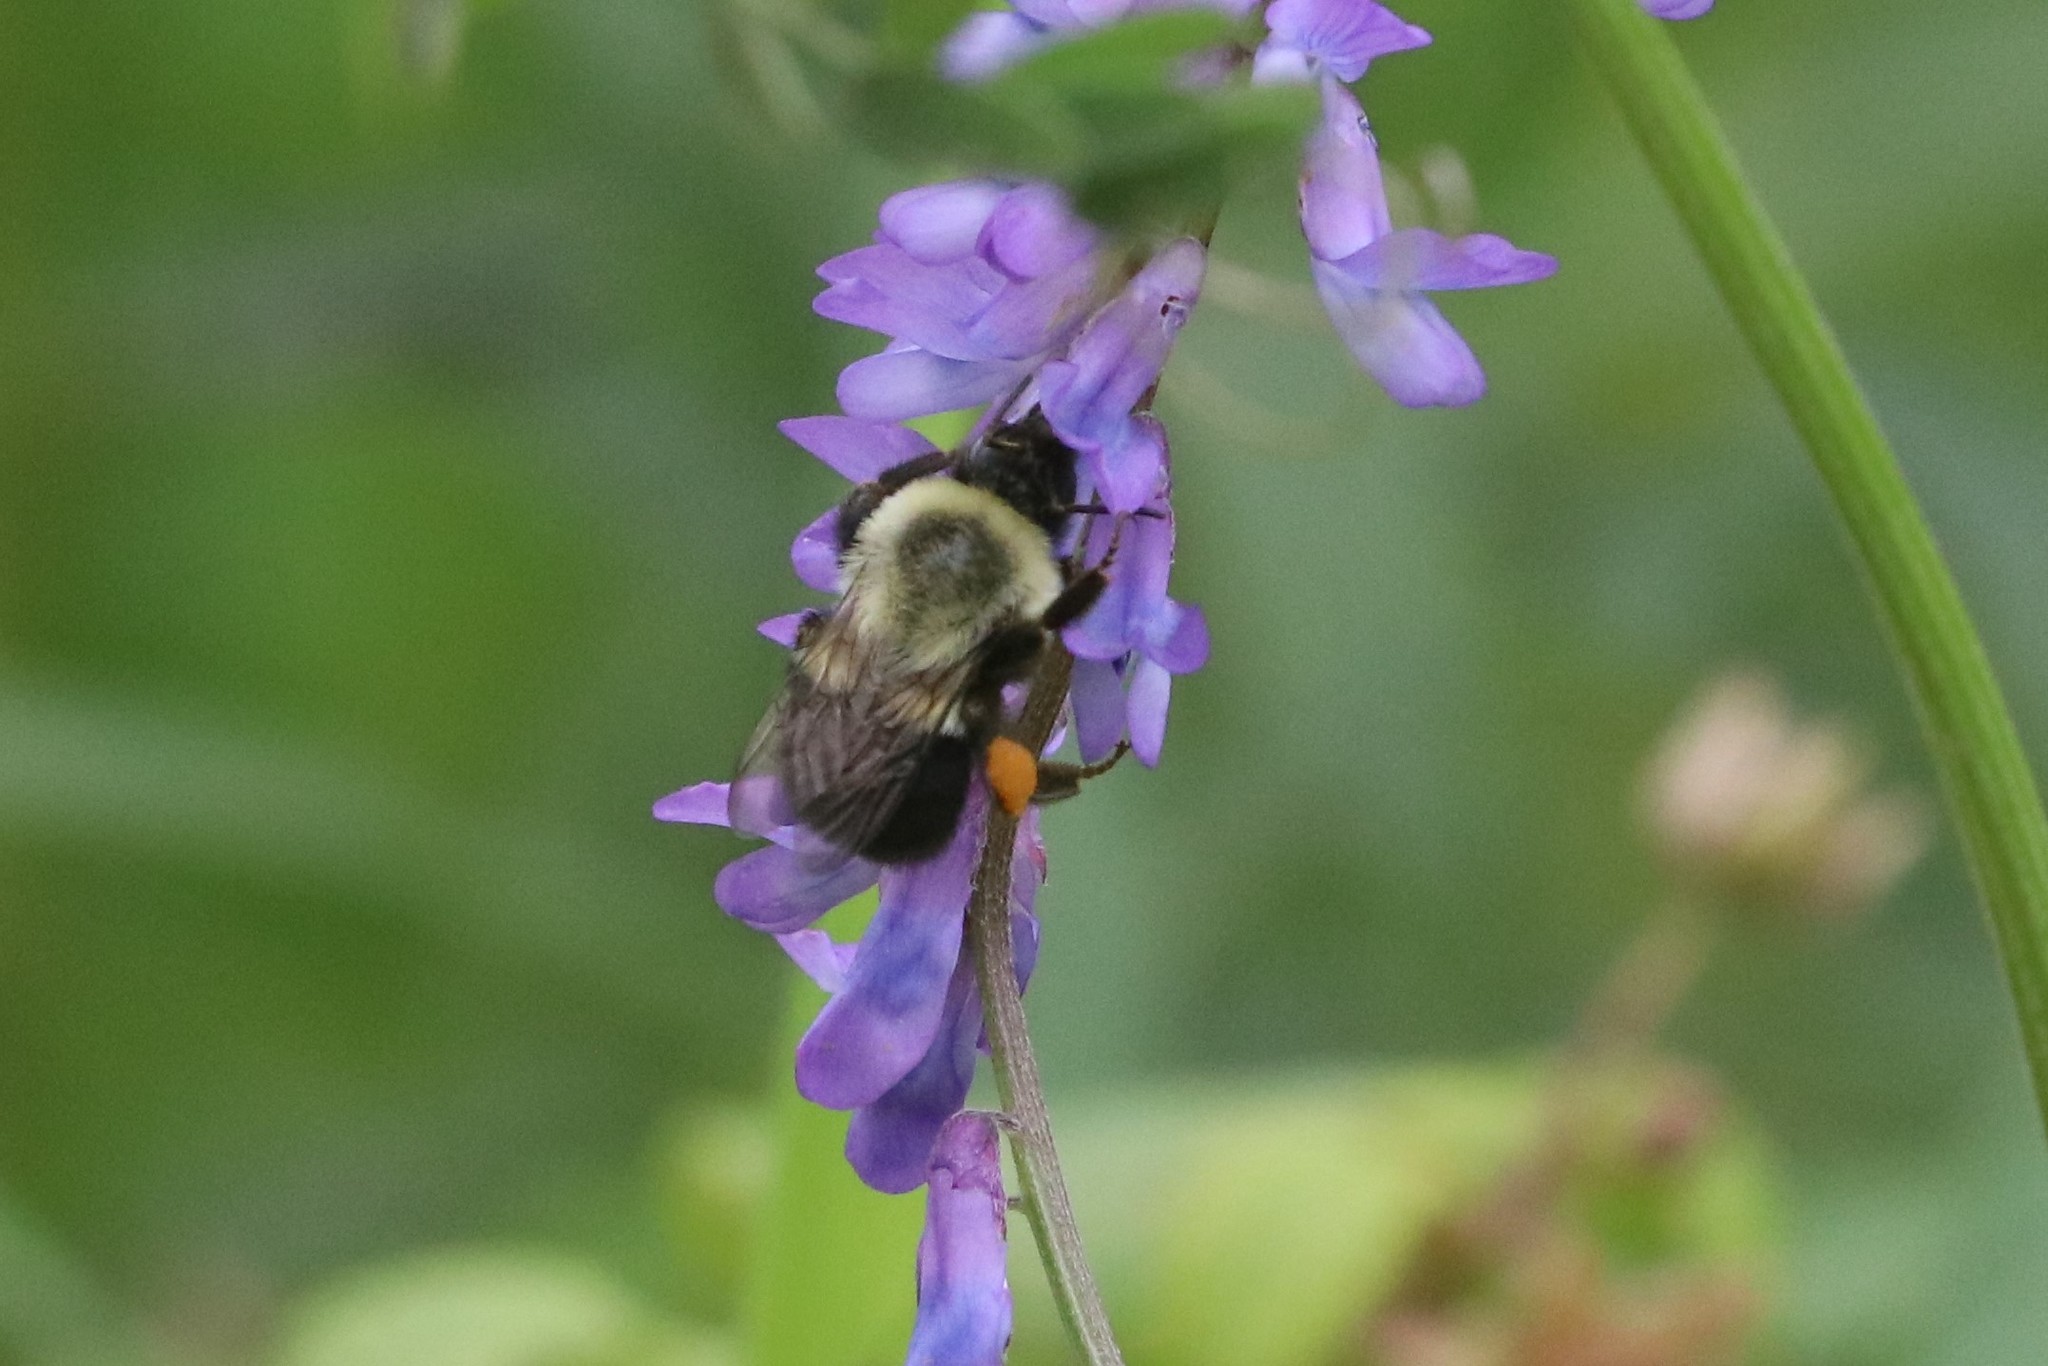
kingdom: Animalia
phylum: Arthropoda
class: Insecta
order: Hymenoptera
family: Apidae
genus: Bombus
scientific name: Bombus impatiens
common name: Common eastern bumble bee
